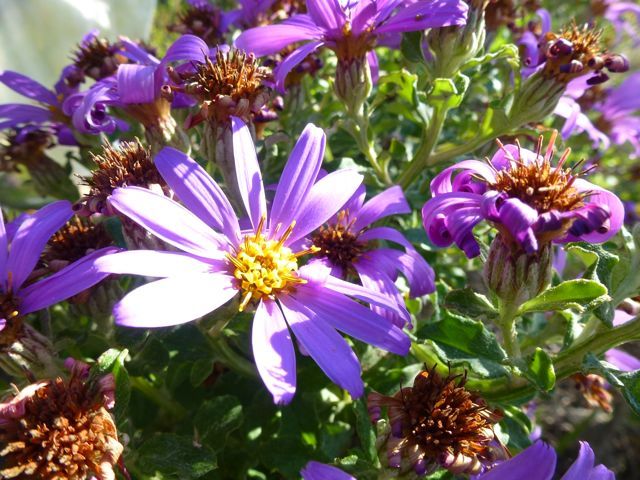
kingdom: Plantae
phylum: Tracheophyta
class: Magnoliopsida
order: Asterales
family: Asteraceae
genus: Printzia
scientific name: Printzia polifolia
